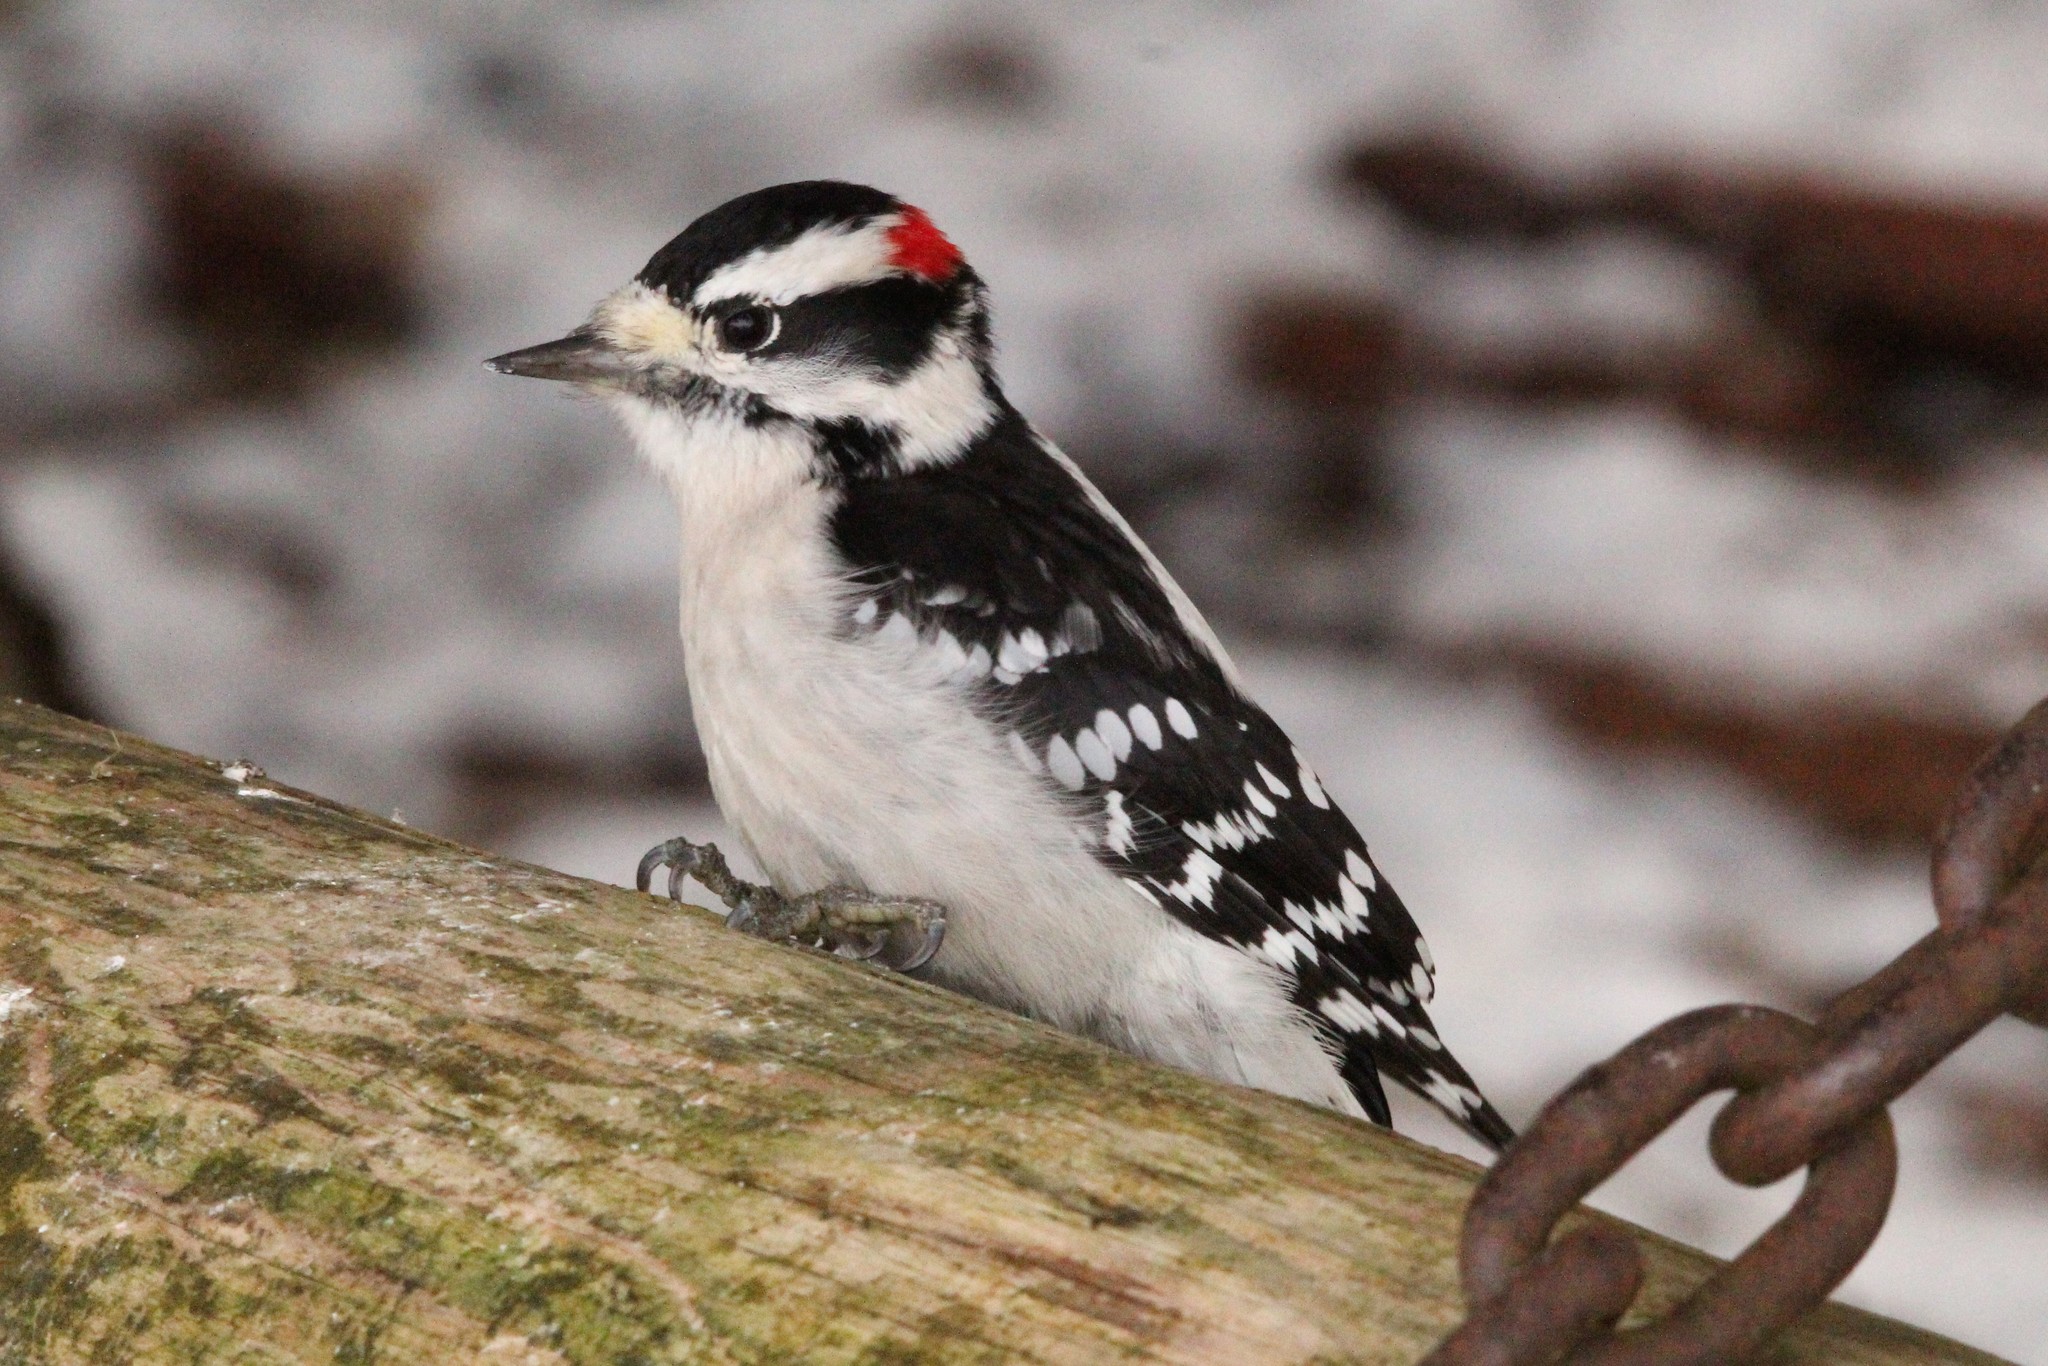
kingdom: Animalia
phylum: Chordata
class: Aves
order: Piciformes
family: Picidae
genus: Dryobates
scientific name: Dryobates pubescens
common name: Downy woodpecker
